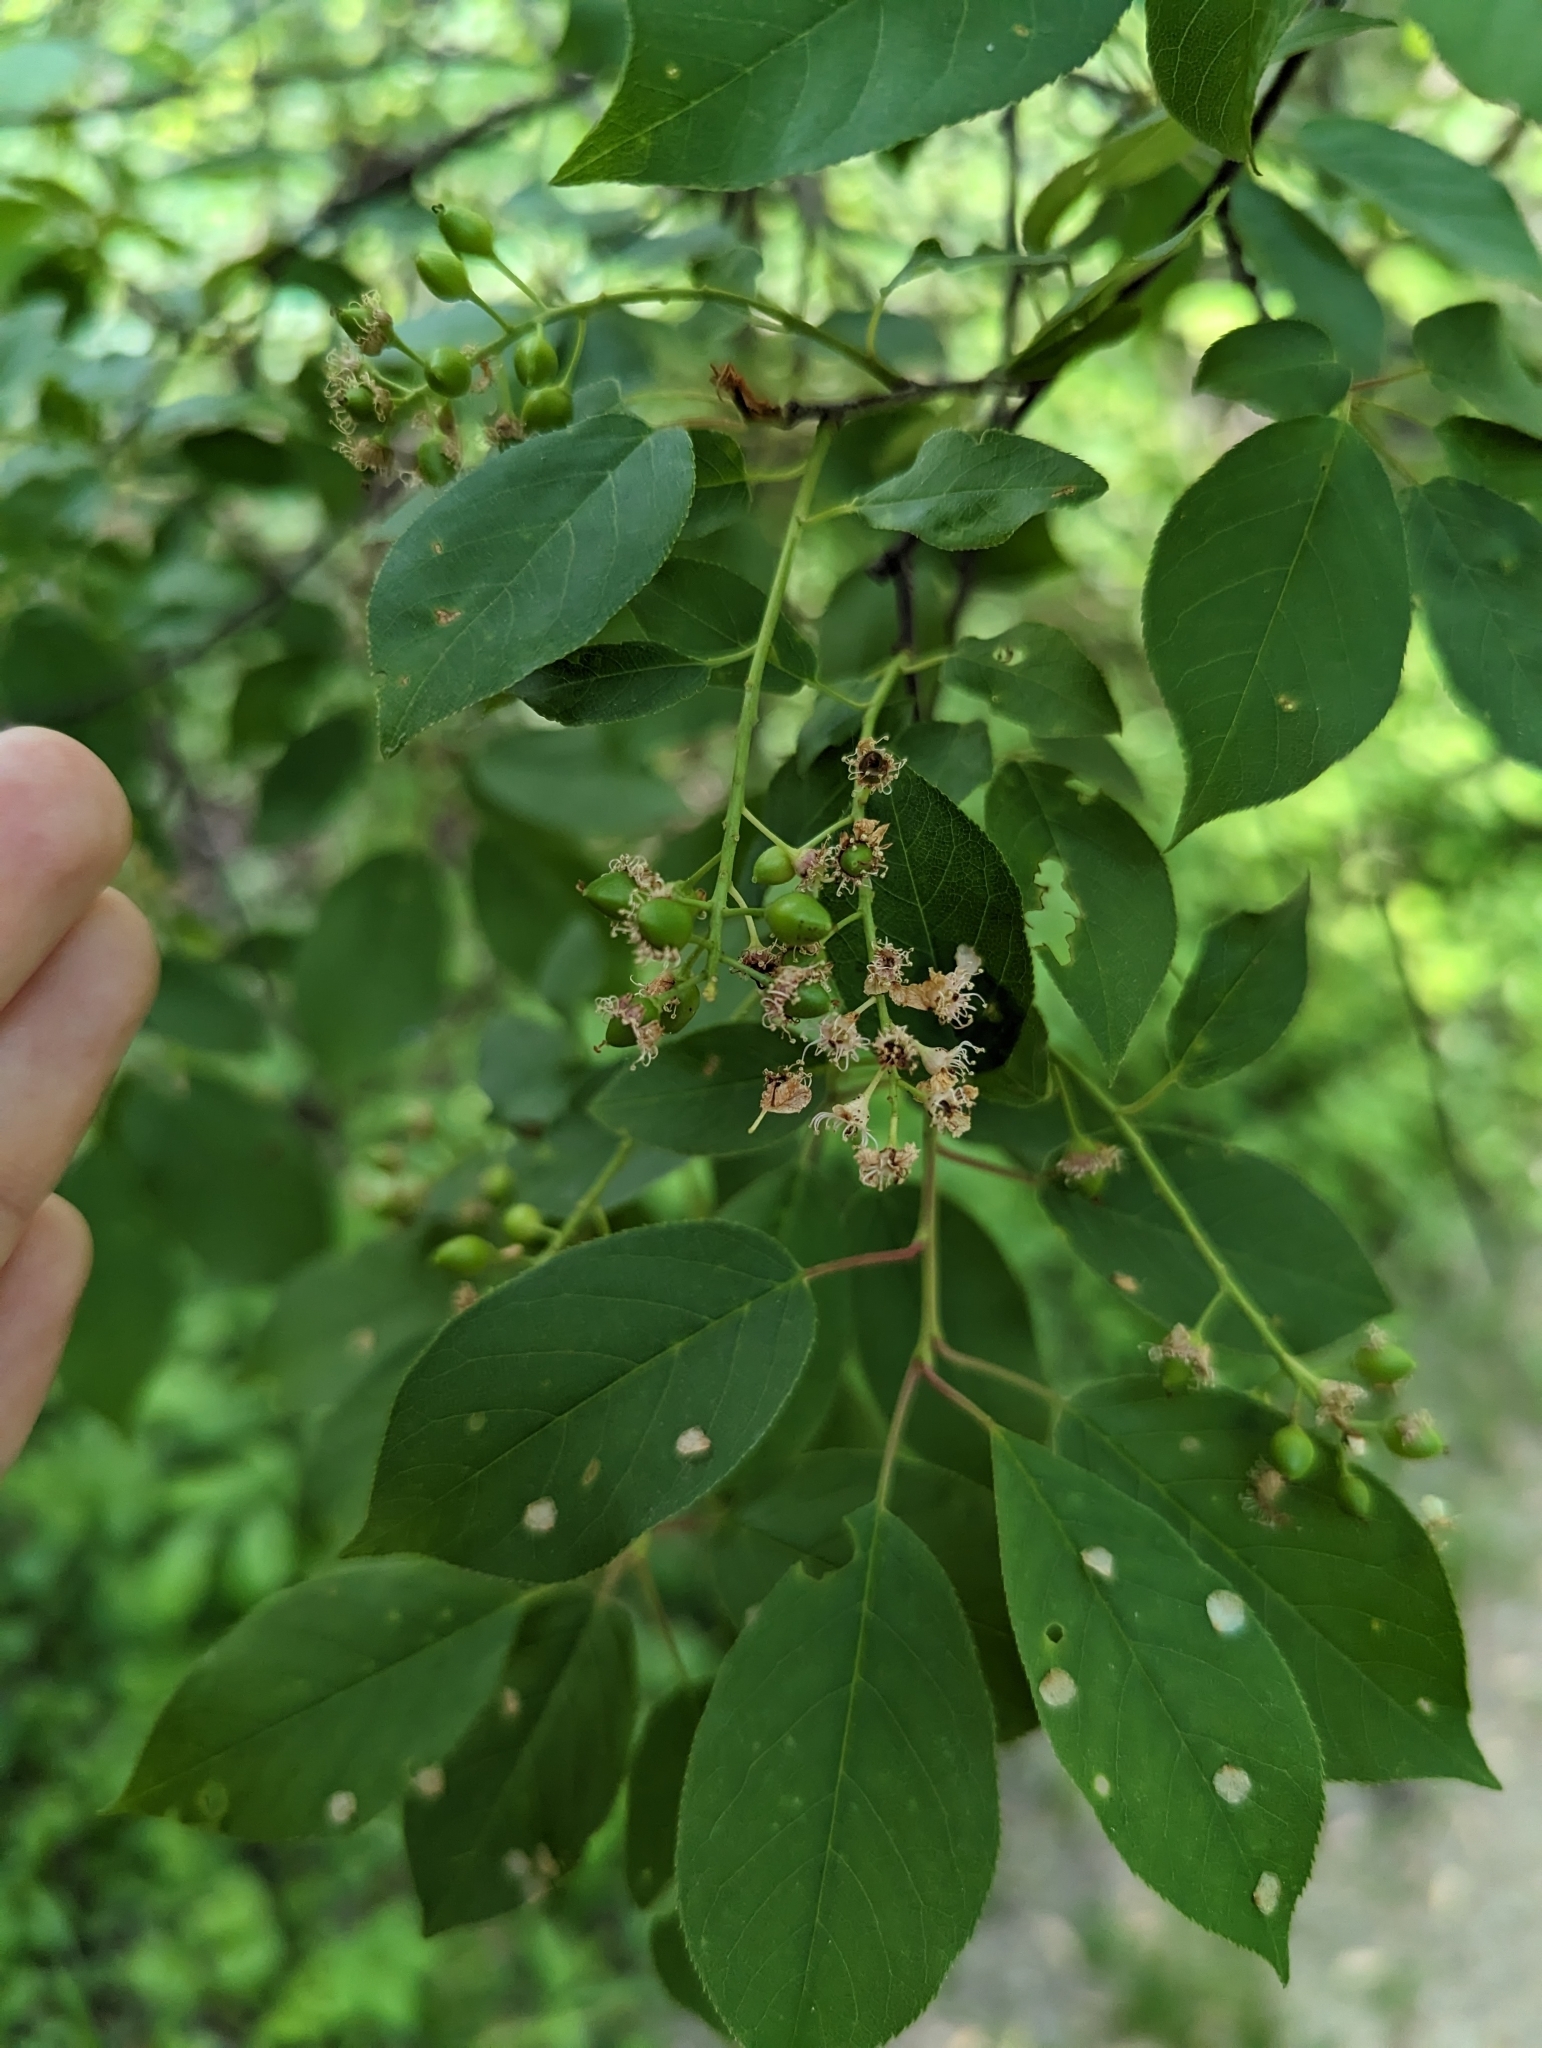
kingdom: Plantae
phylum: Tracheophyta
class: Magnoliopsida
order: Rosales
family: Rosaceae
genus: Prunus
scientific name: Prunus serotina
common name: Black cherry
